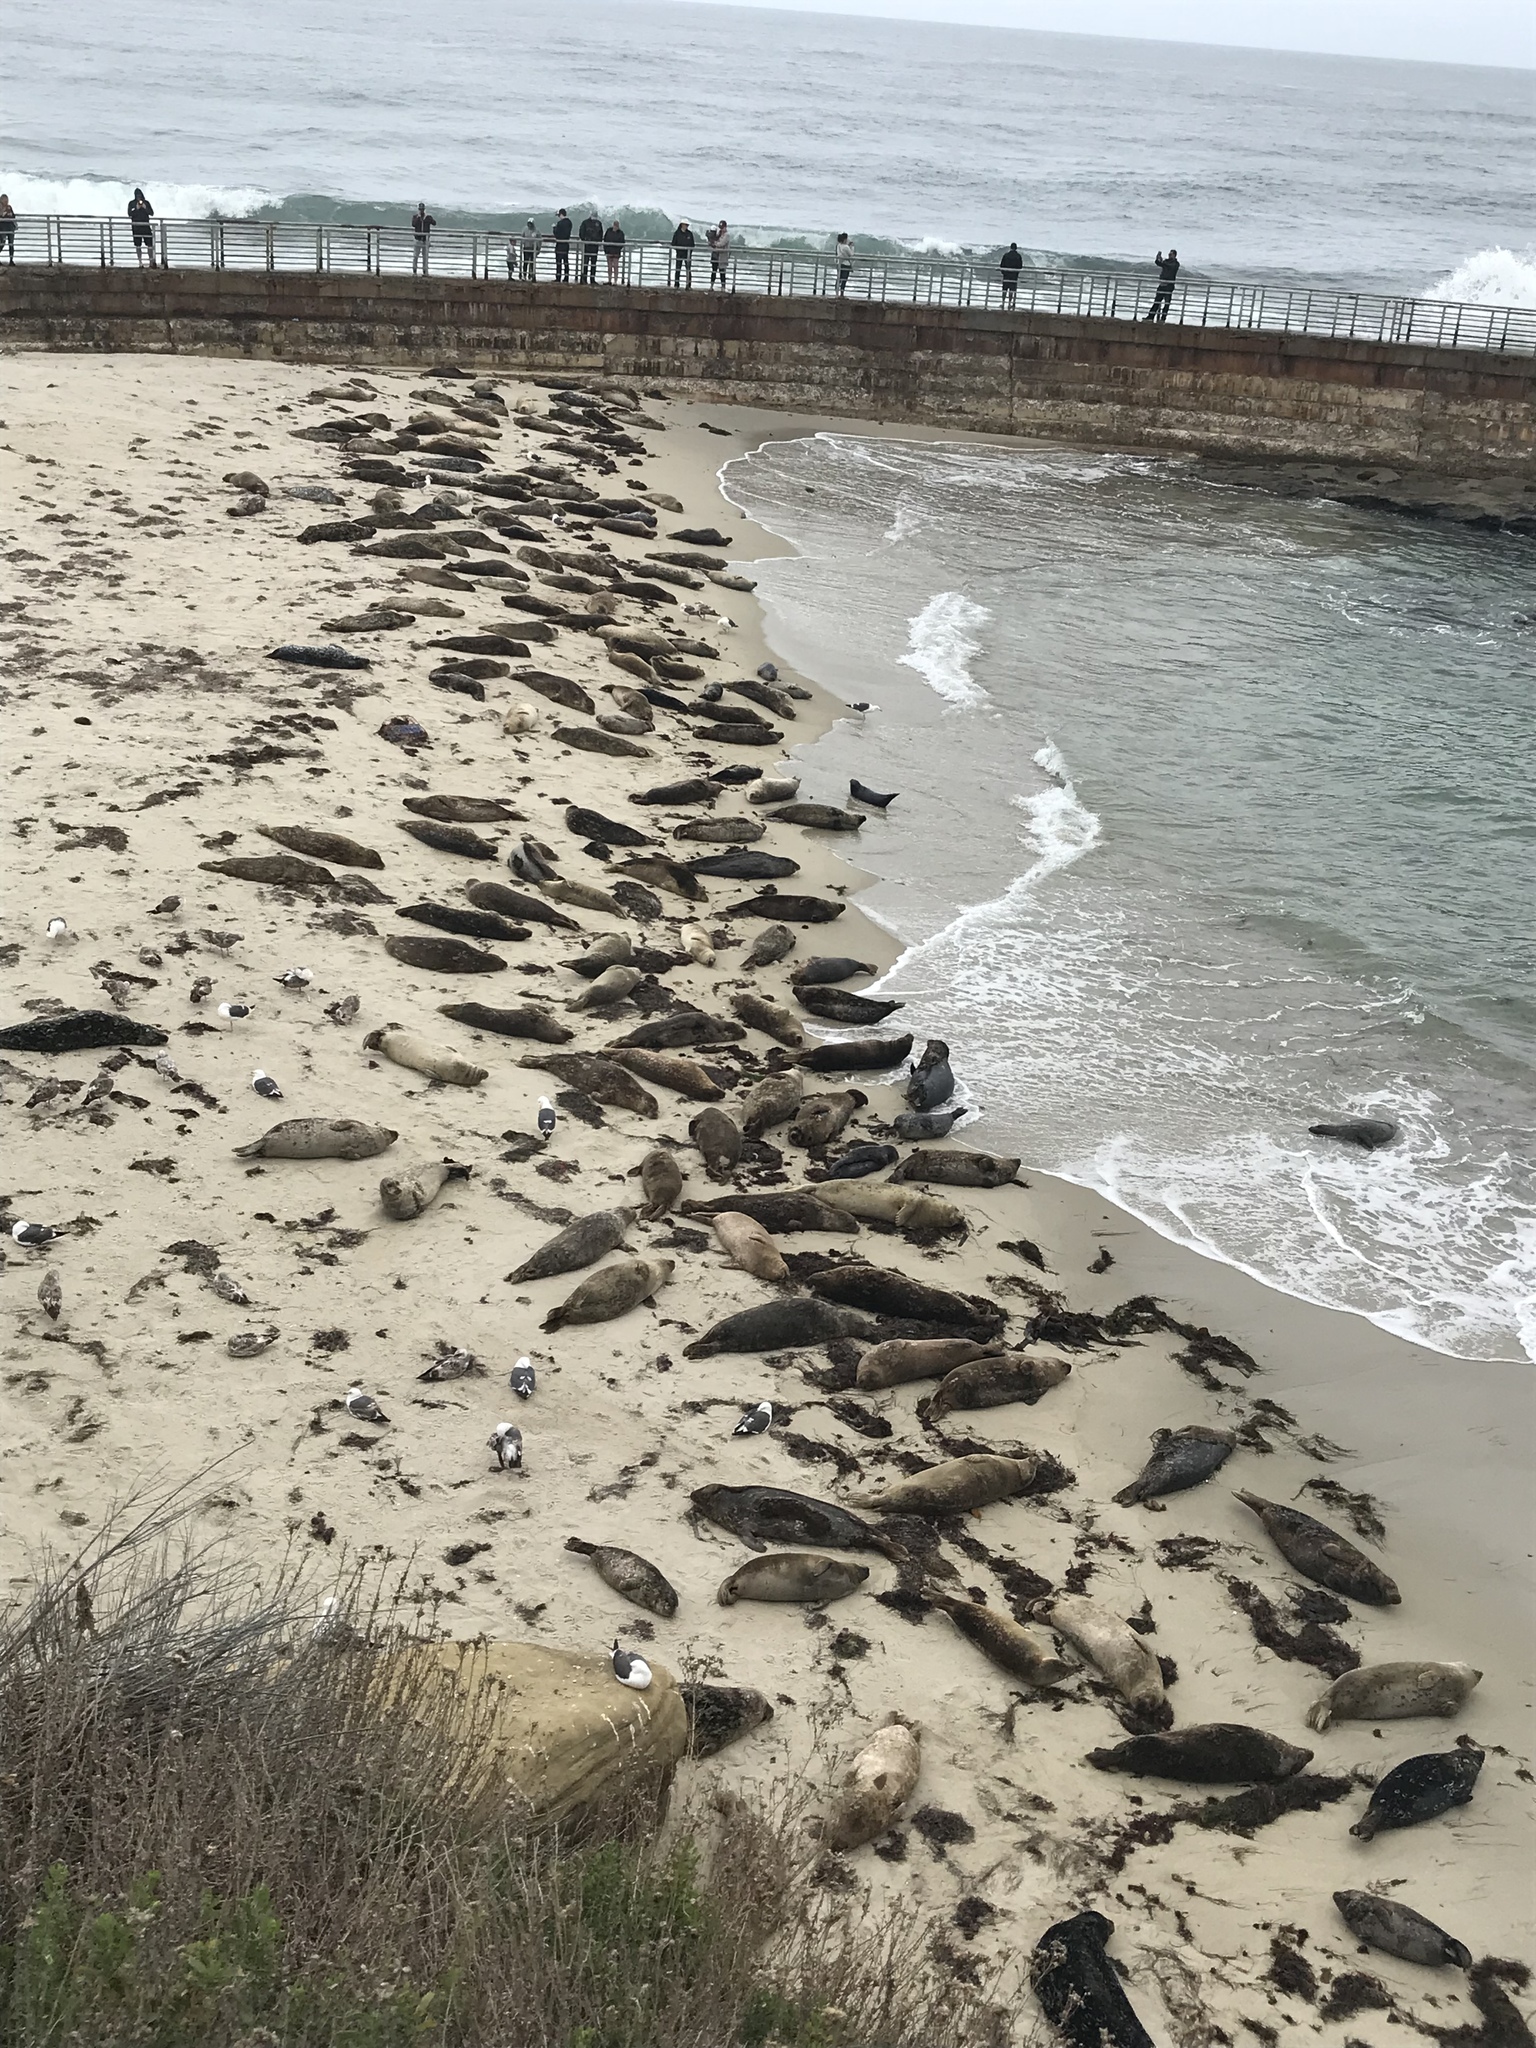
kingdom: Animalia
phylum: Chordata
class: Mammalia
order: Carnivora
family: Phocidae
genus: Phoca
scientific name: Phoca vitulina
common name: Harbor seal
